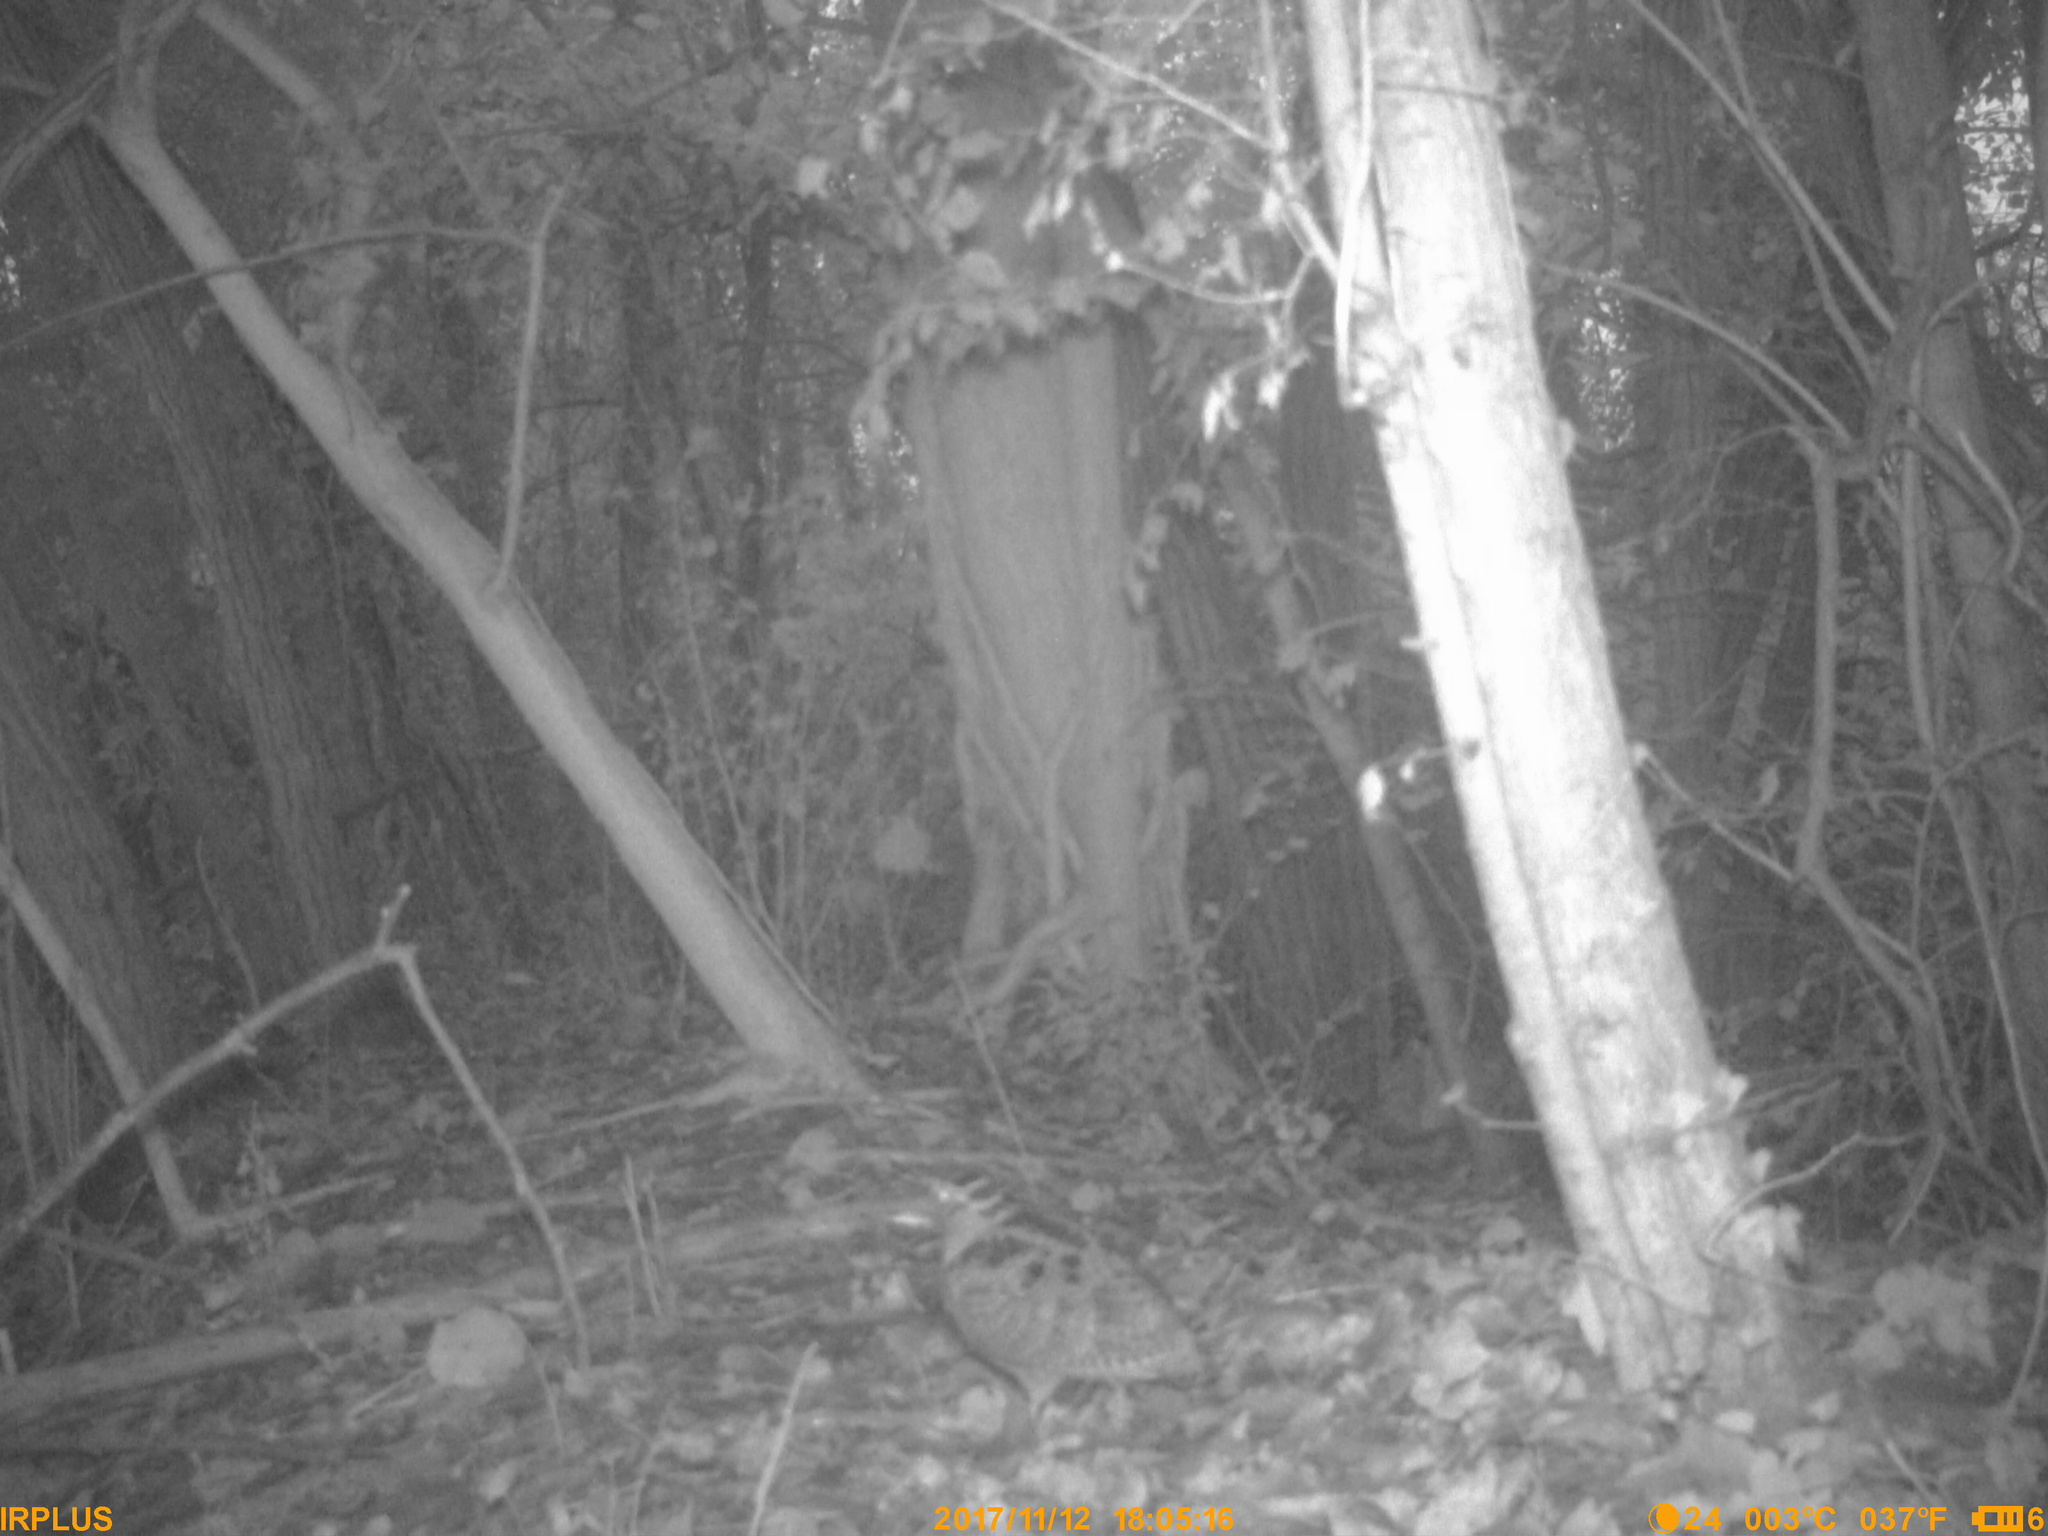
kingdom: Animalia
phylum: Chordata
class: Aves
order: Charadriiformes
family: Scolopacidae
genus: Scolopax
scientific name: Scolopax rusticola
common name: Eurasian woodcock
